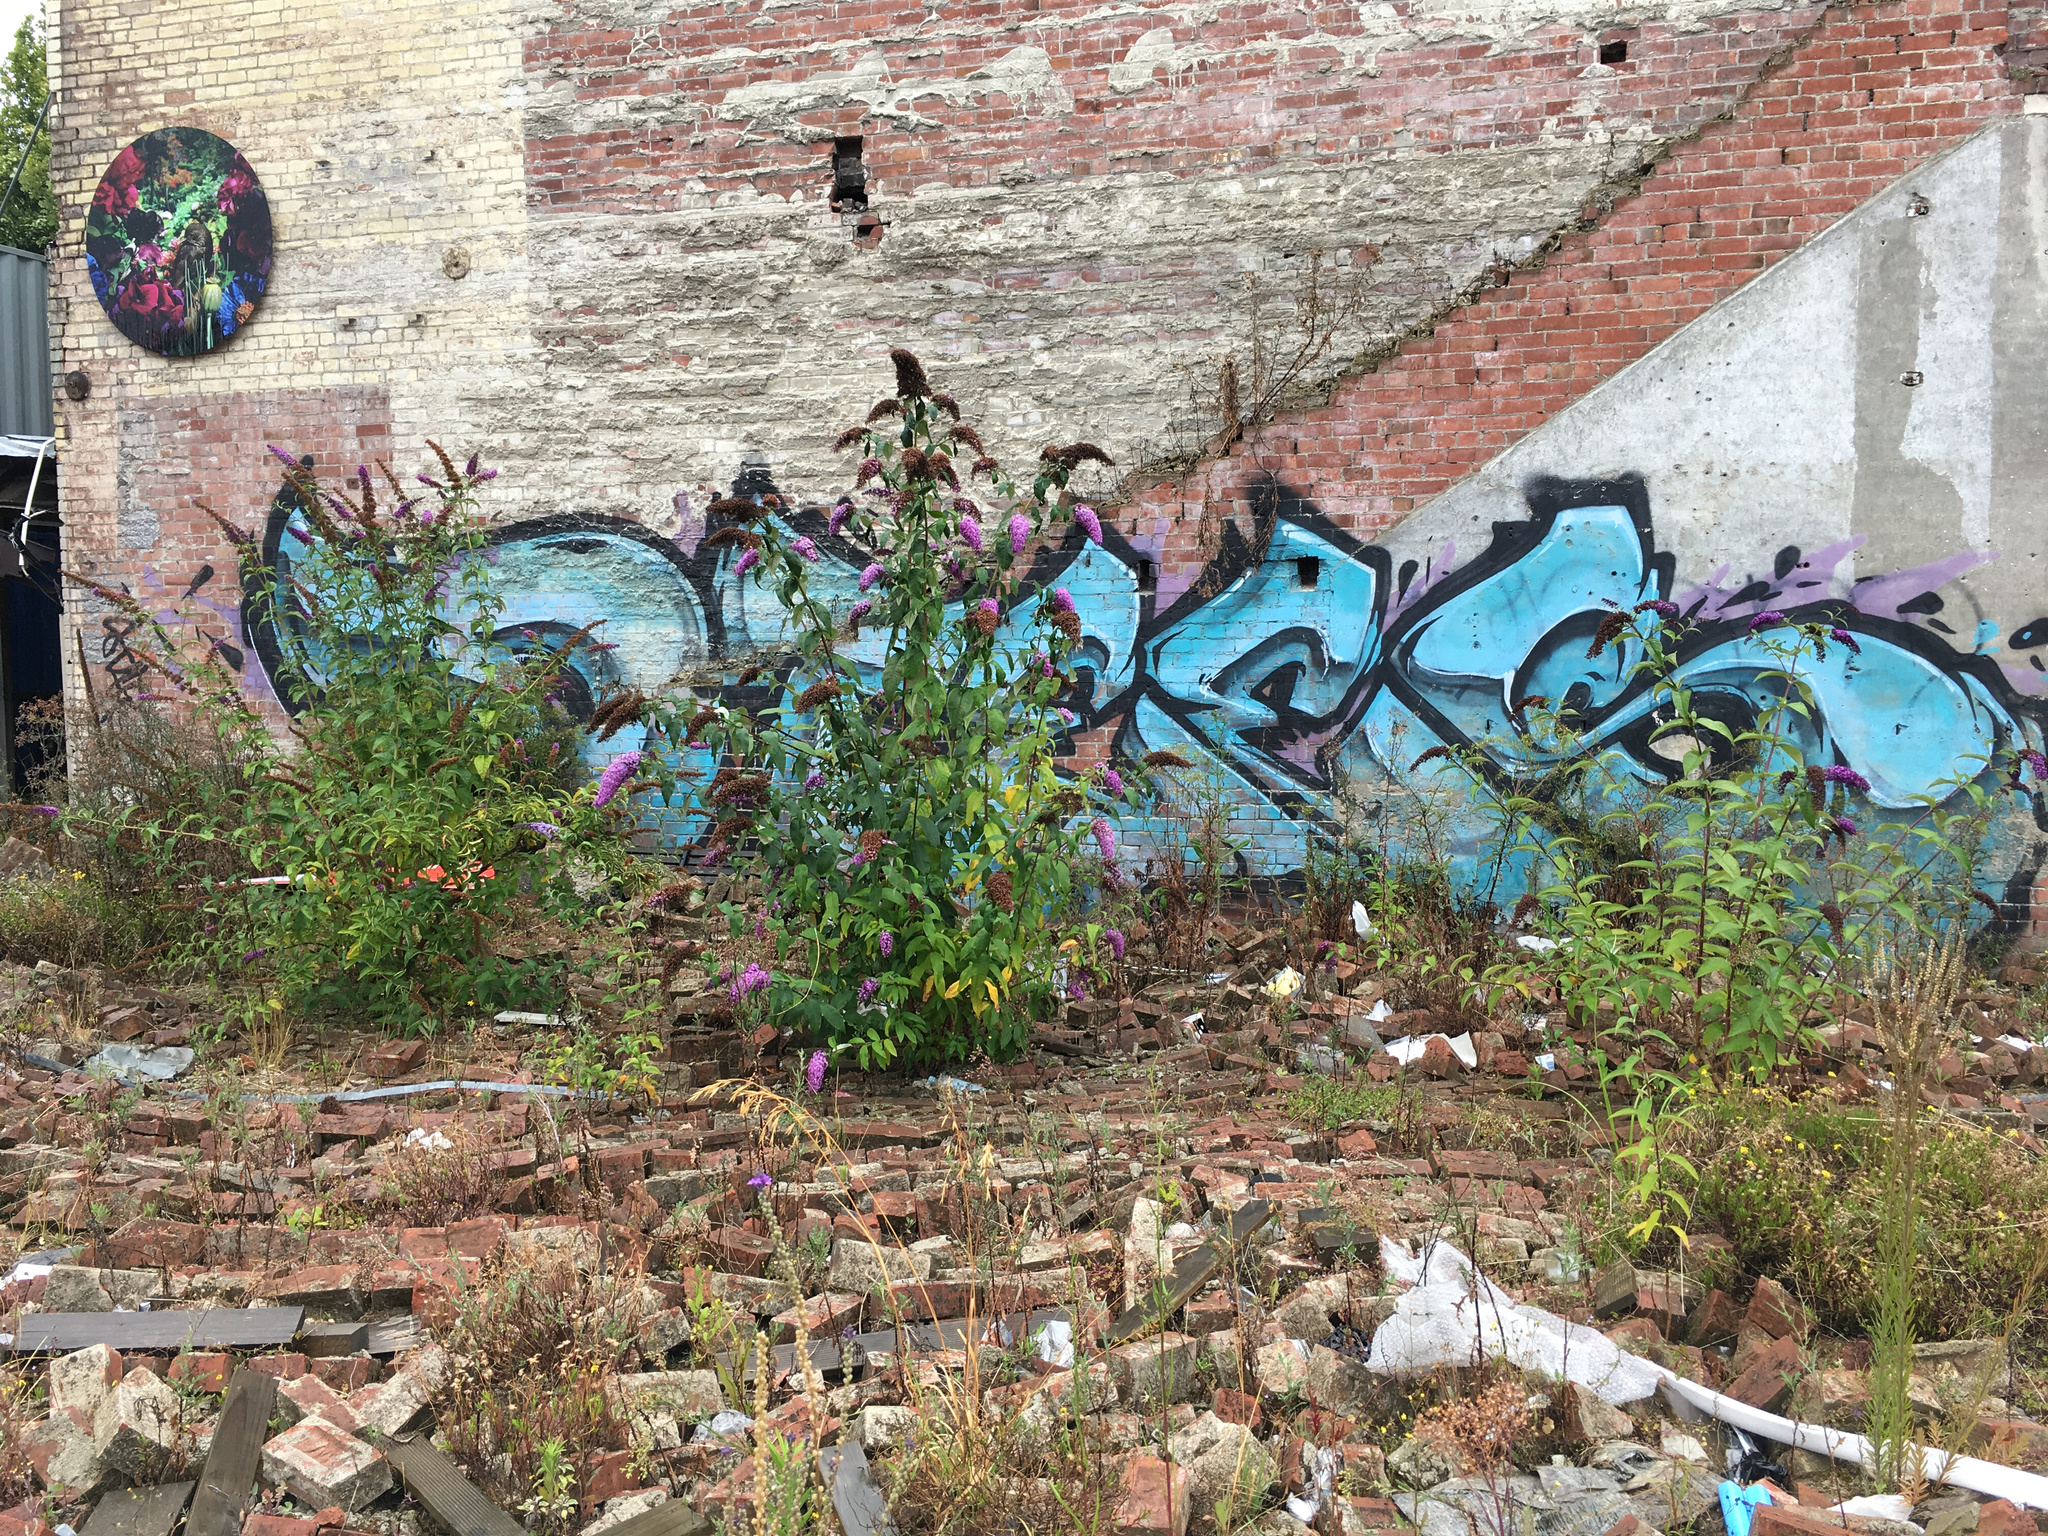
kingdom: Plantae
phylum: Tracheophyta
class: Magnoliopsida
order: Lamiales
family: Scrophulariaceae
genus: Buddleja
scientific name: Buddleja davidii
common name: Butterfly-bush
